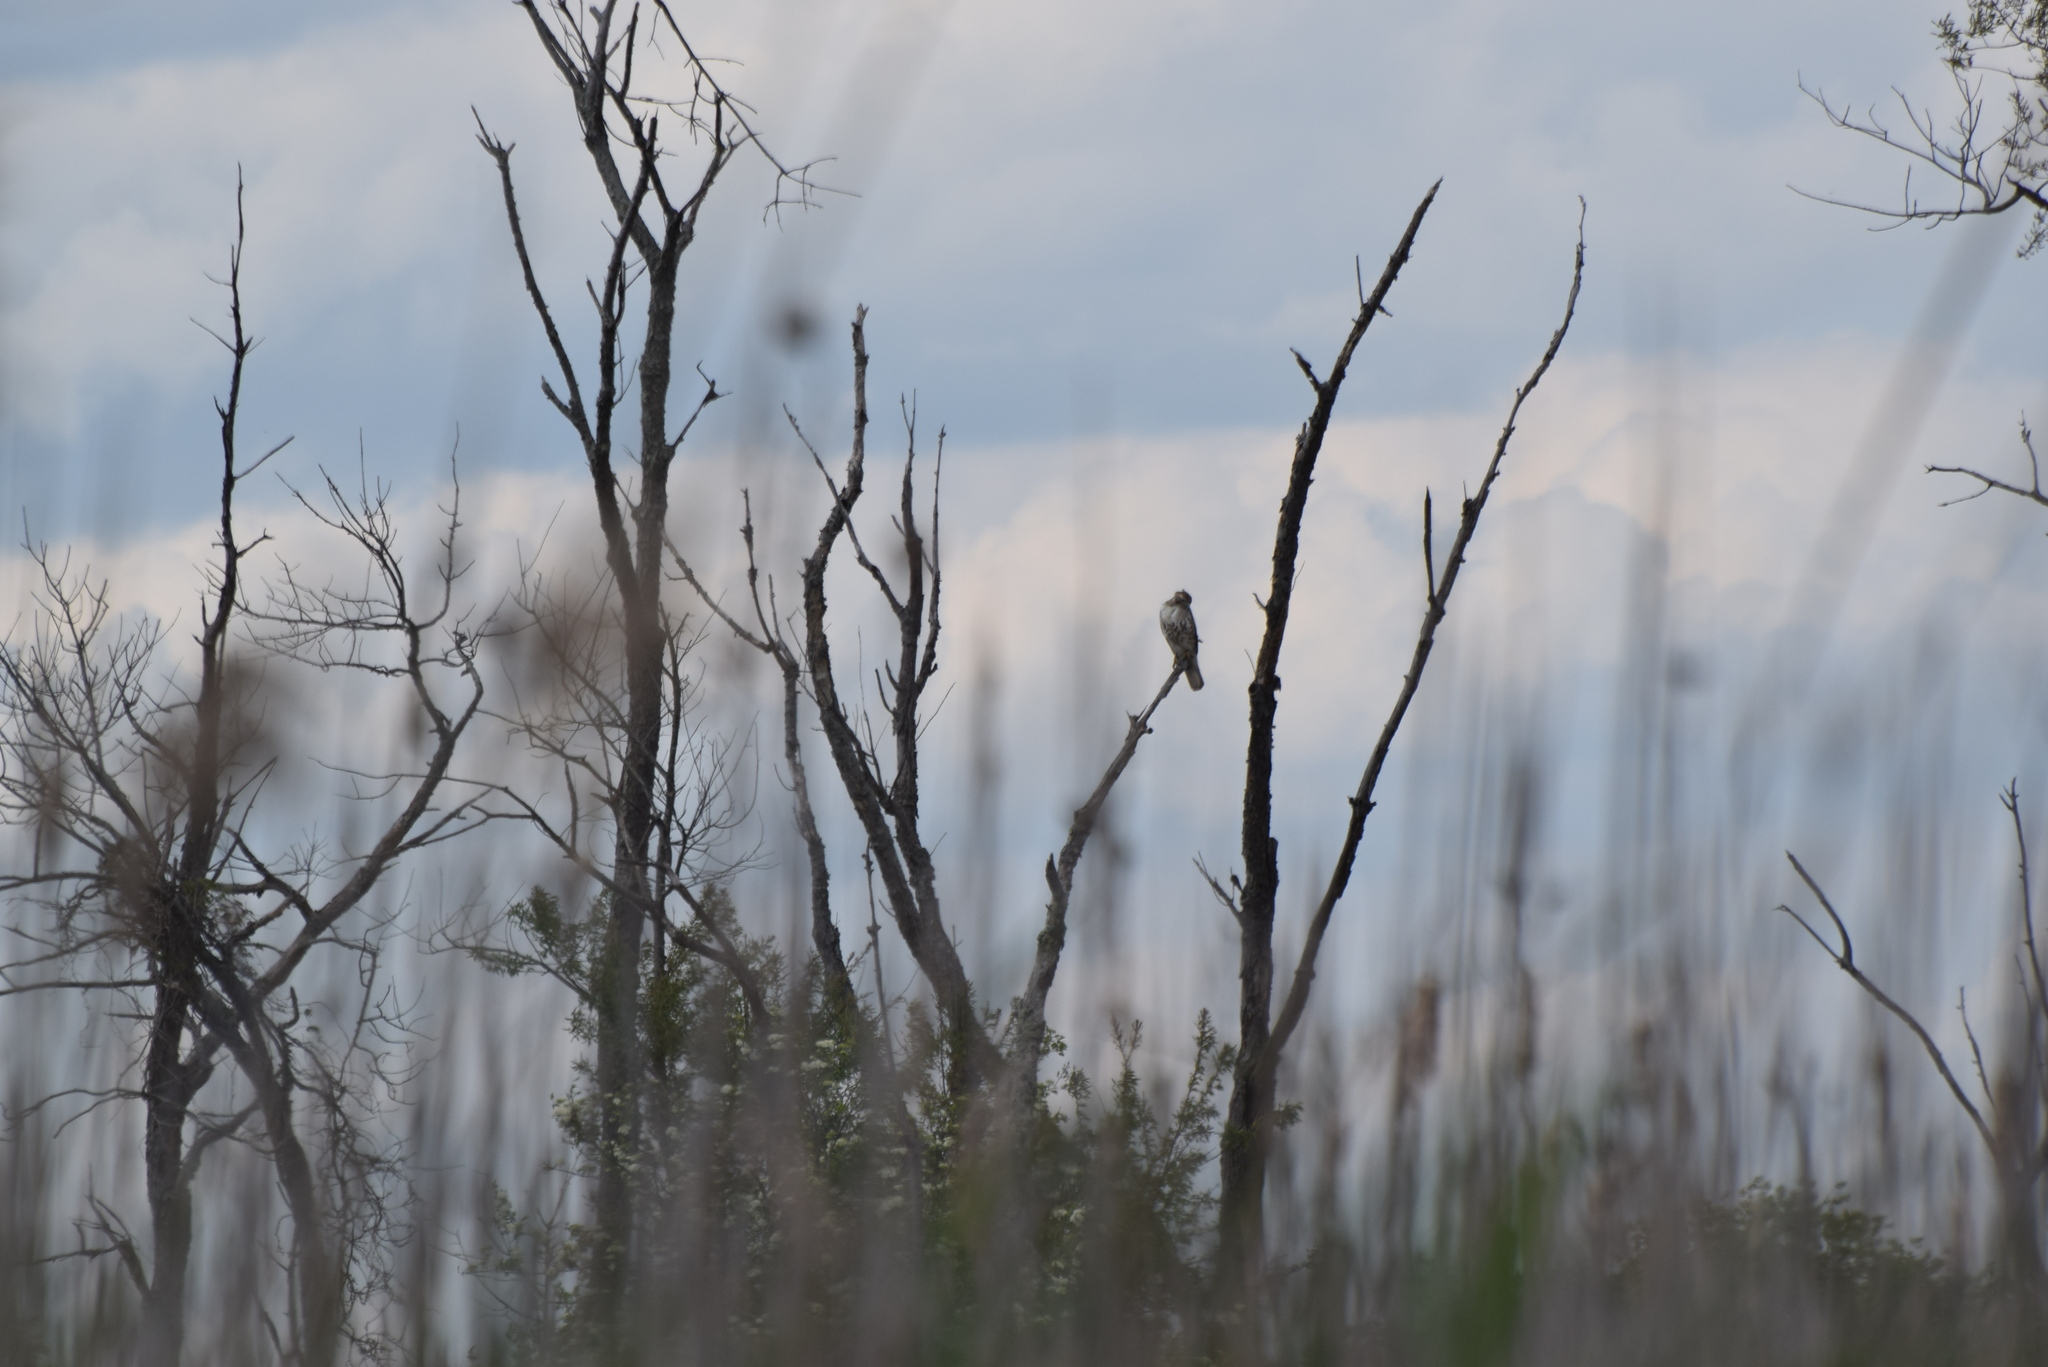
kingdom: Animalia
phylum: Chordata
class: Aves
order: Accipitriformes
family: Accipitridae
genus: Buteo
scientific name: Buteo jamaicensis
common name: Red-tailed hawk
